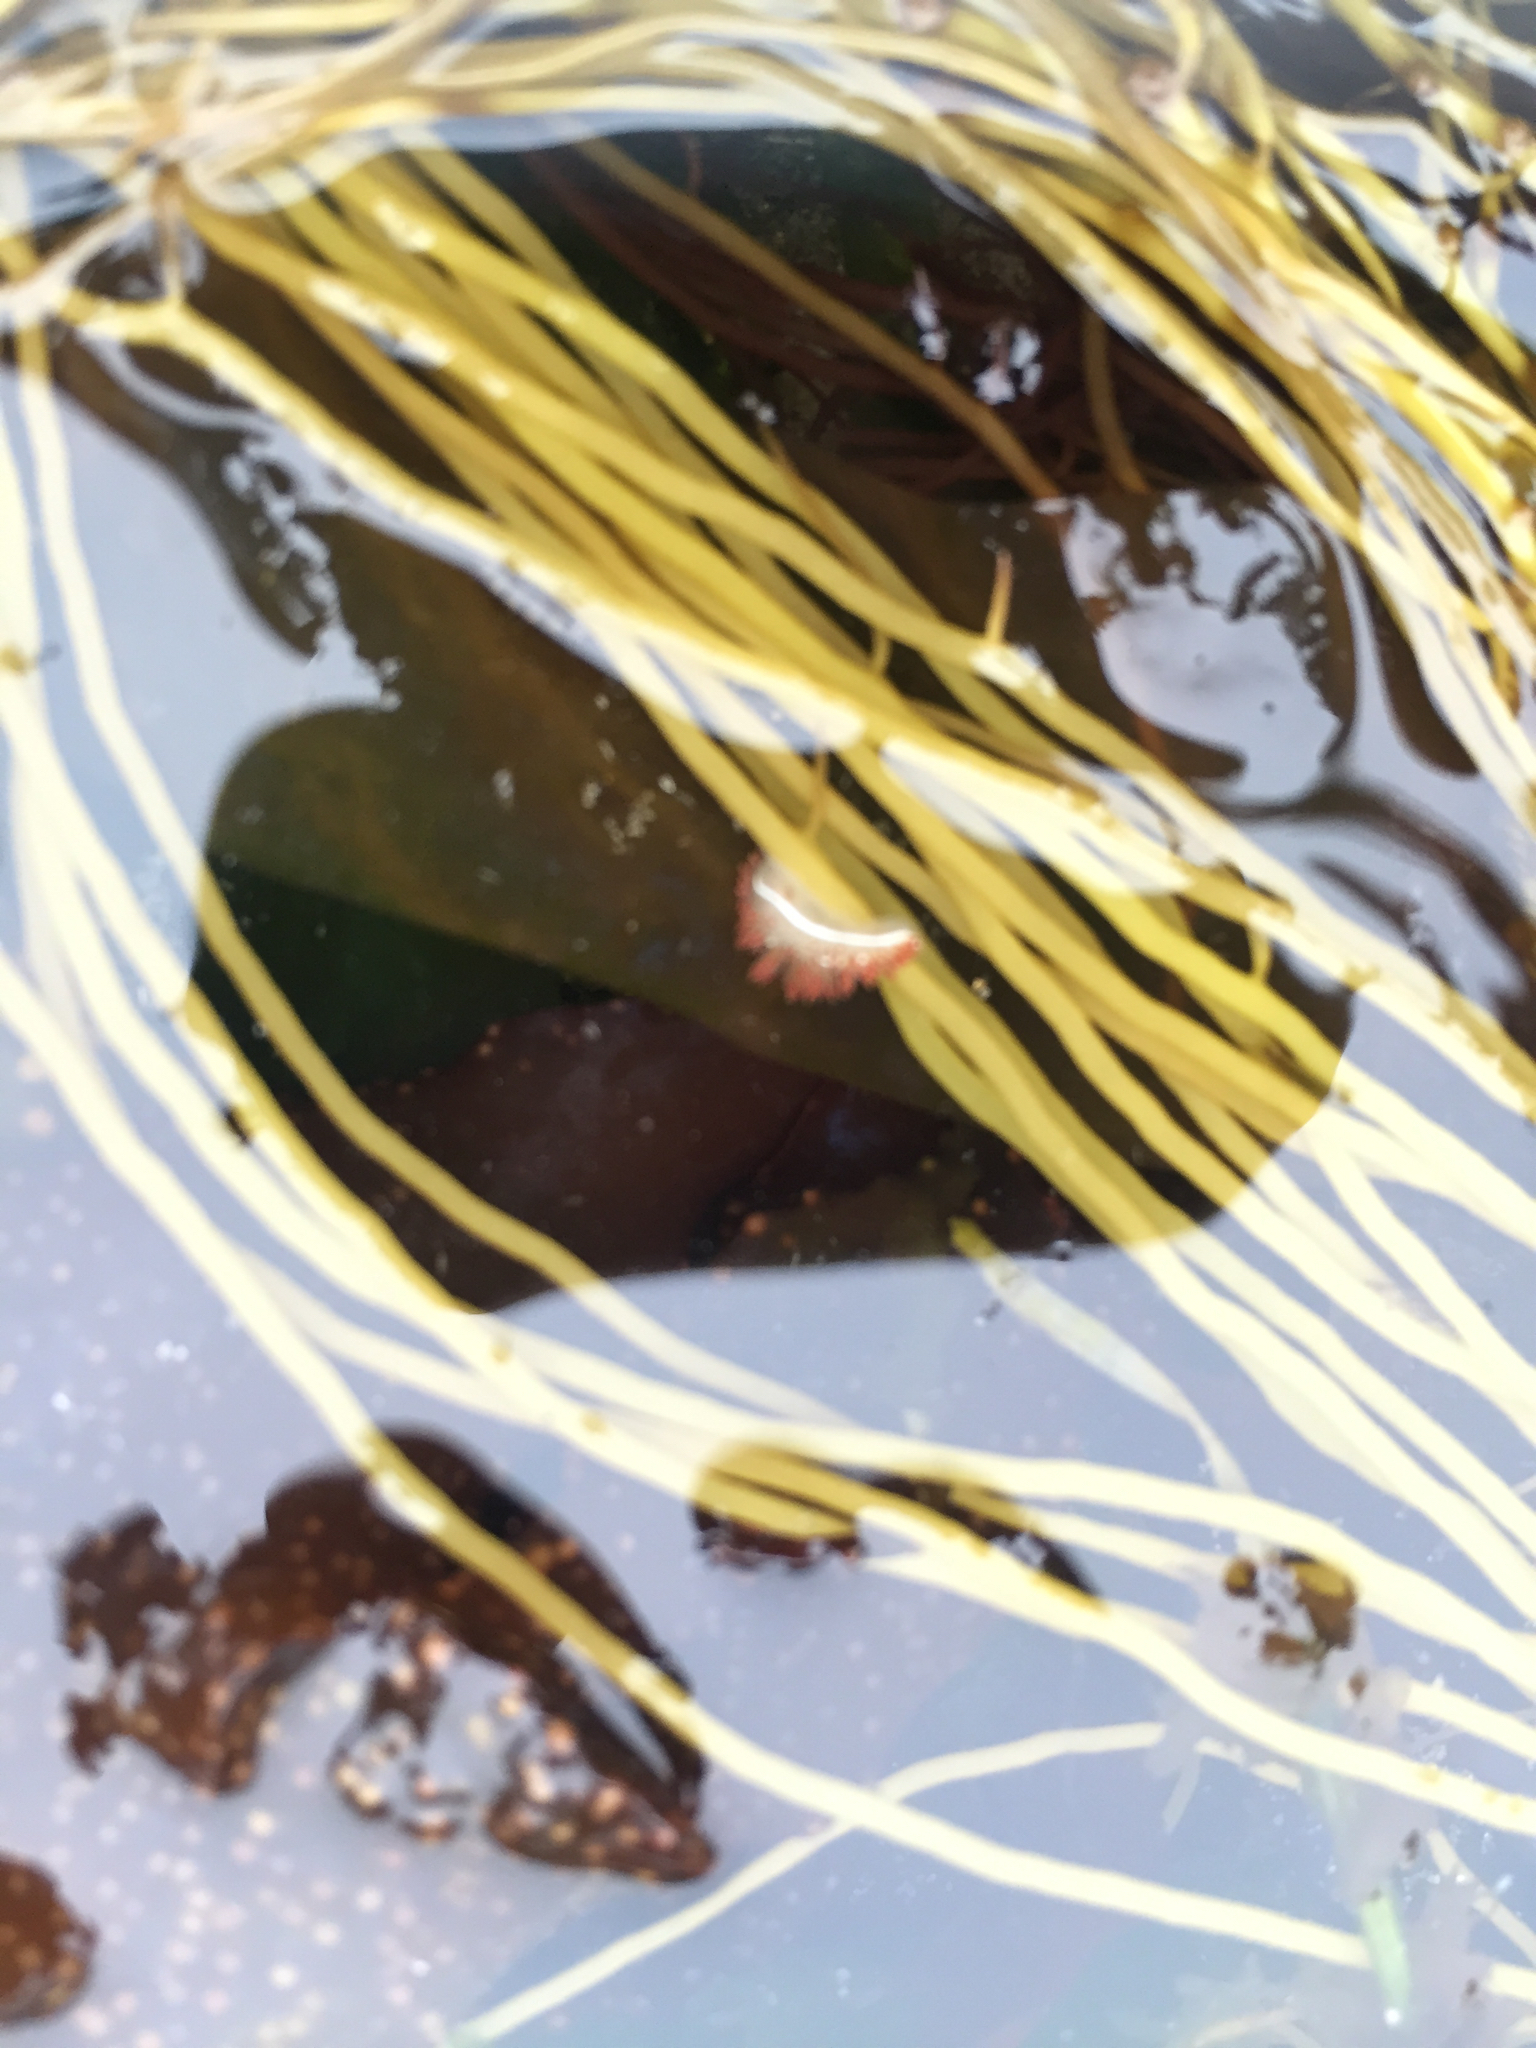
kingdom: Animalia
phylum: Mollusca
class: Gastropoda
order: Nudibranchia
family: Coryphellidae
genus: Coryphella
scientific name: Coryphella trilineata
